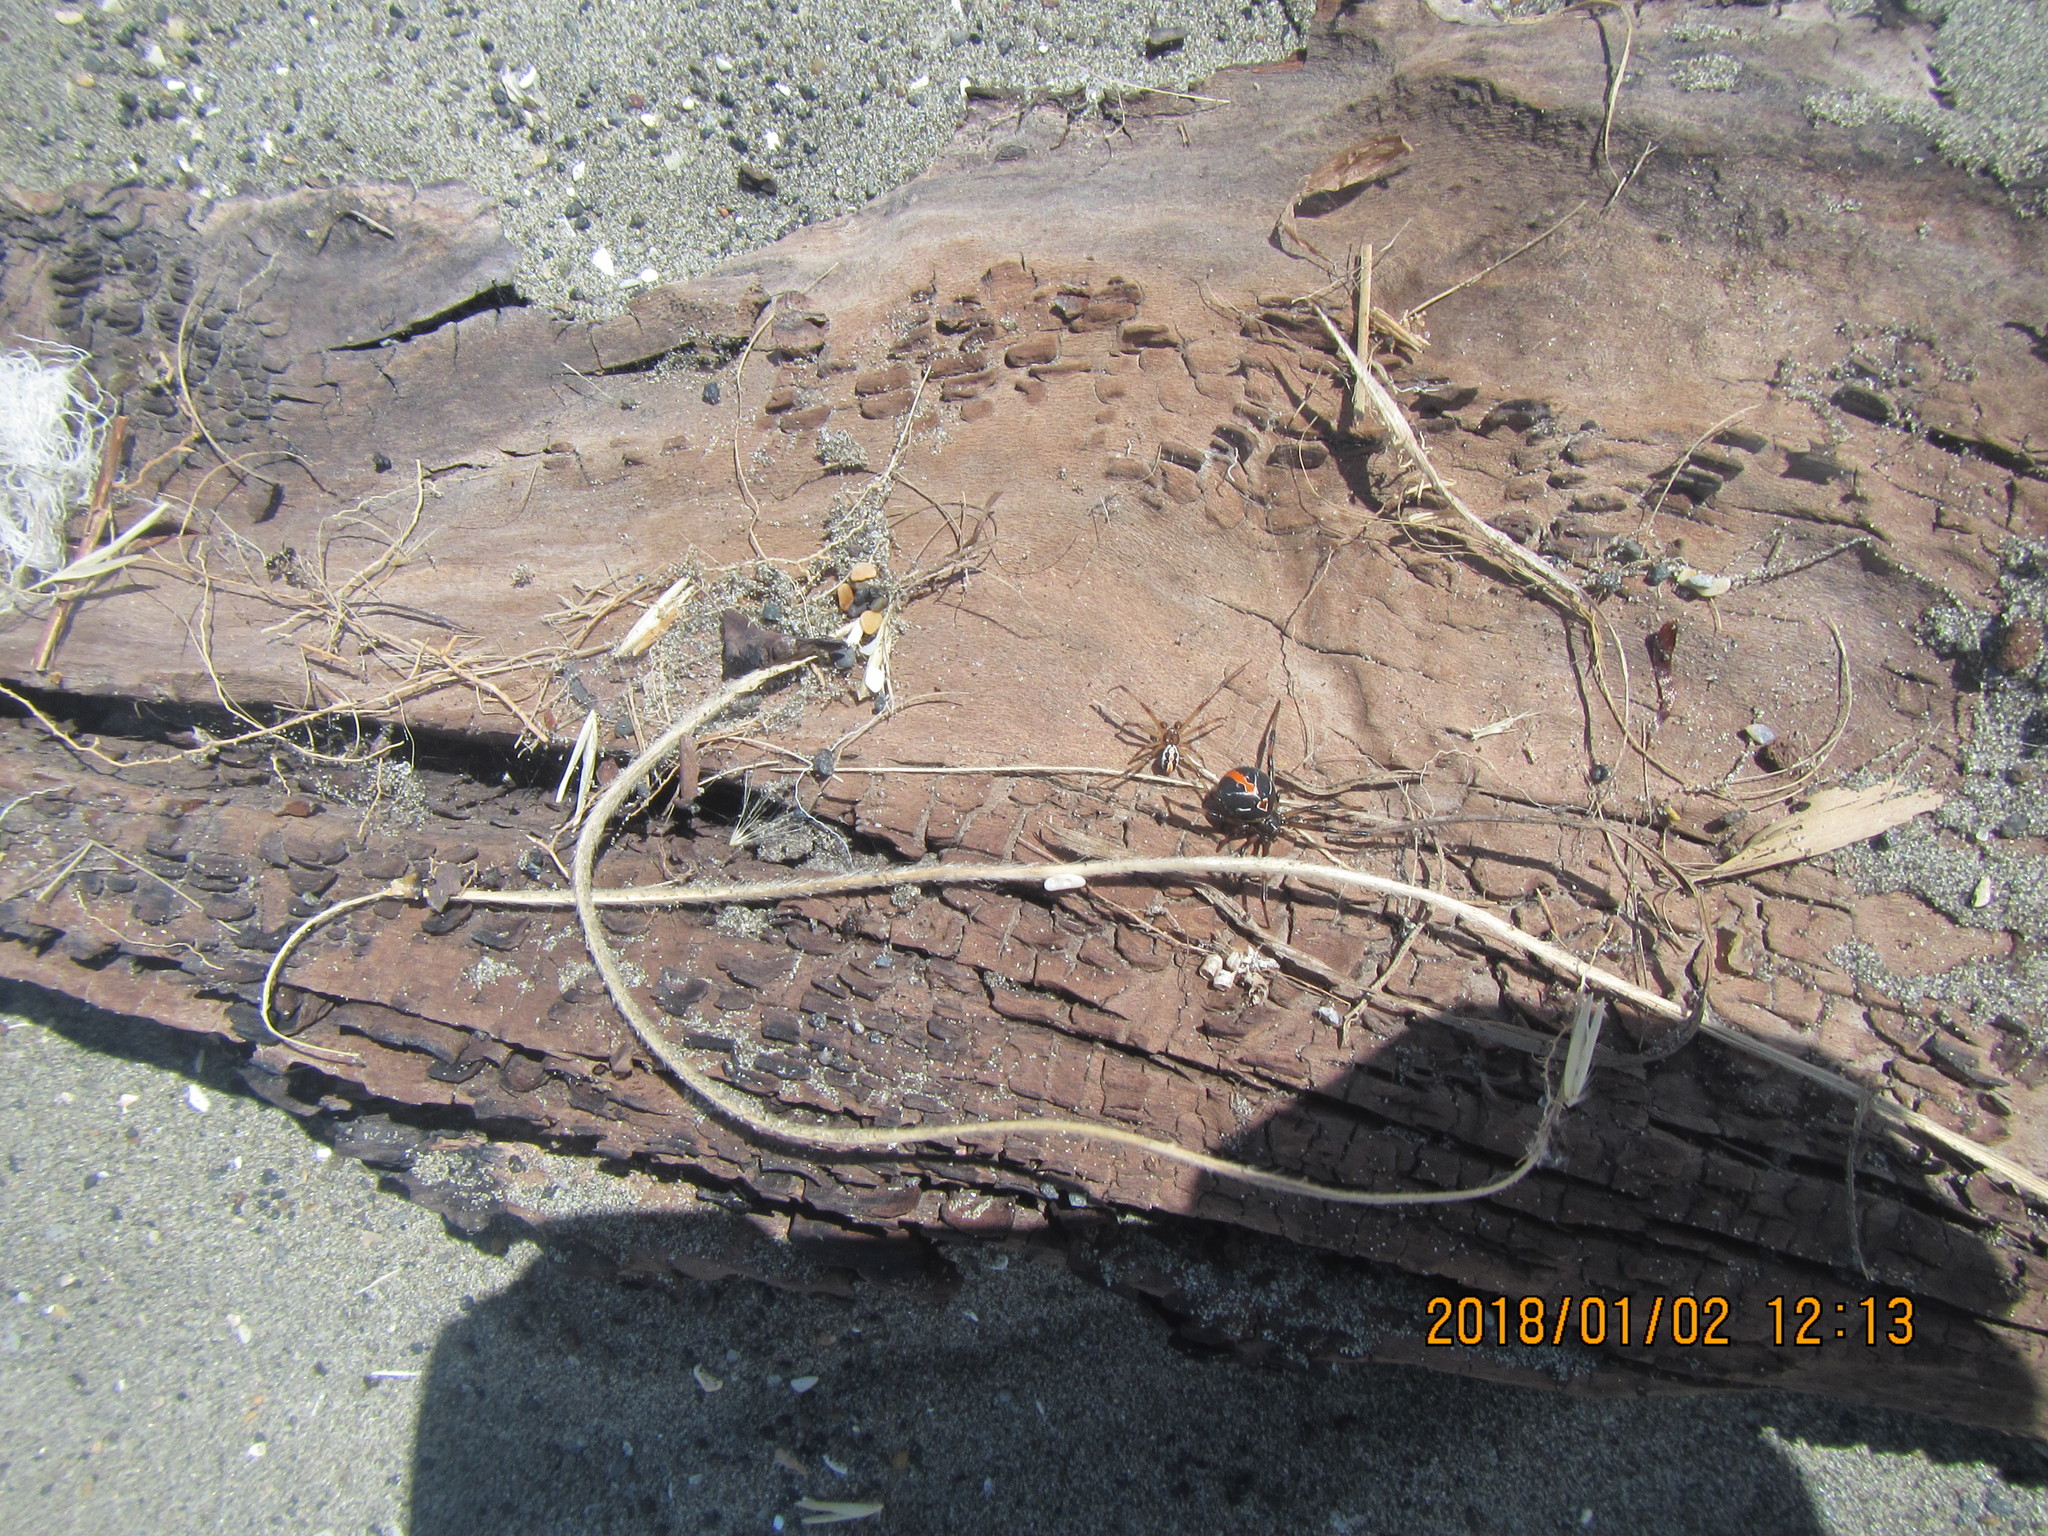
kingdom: Animalia
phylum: Arthropoda
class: Arachnida
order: Araneae
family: Theridiidae
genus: Latrodectus
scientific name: Latrodectus katipo
